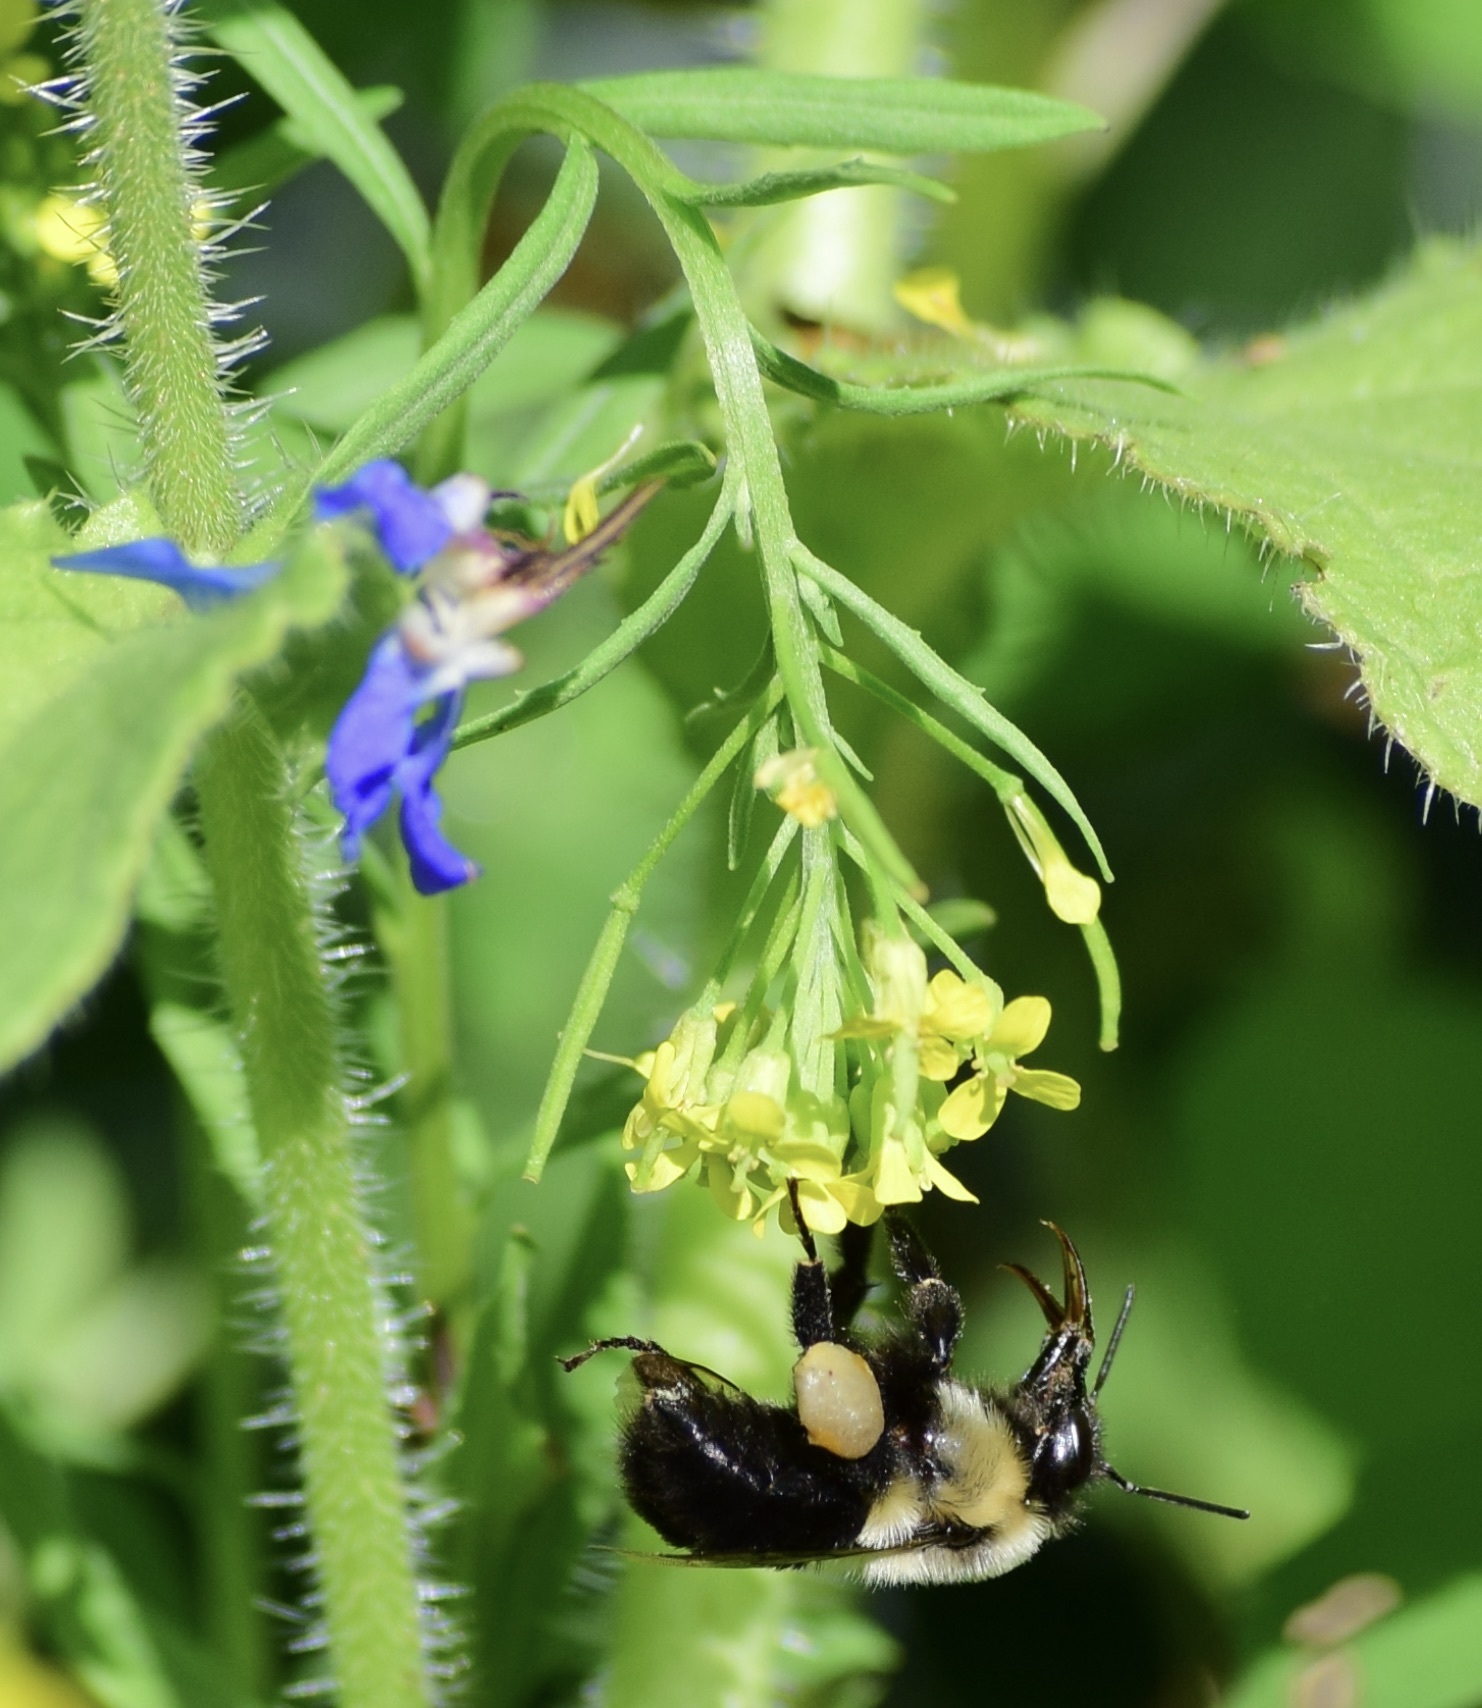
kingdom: Animalia
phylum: Arthropoda
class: Insecta
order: Hymenoptera
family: Apidae
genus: Bombus
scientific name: Bombus impatiens
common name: Common eastern bumble bee
